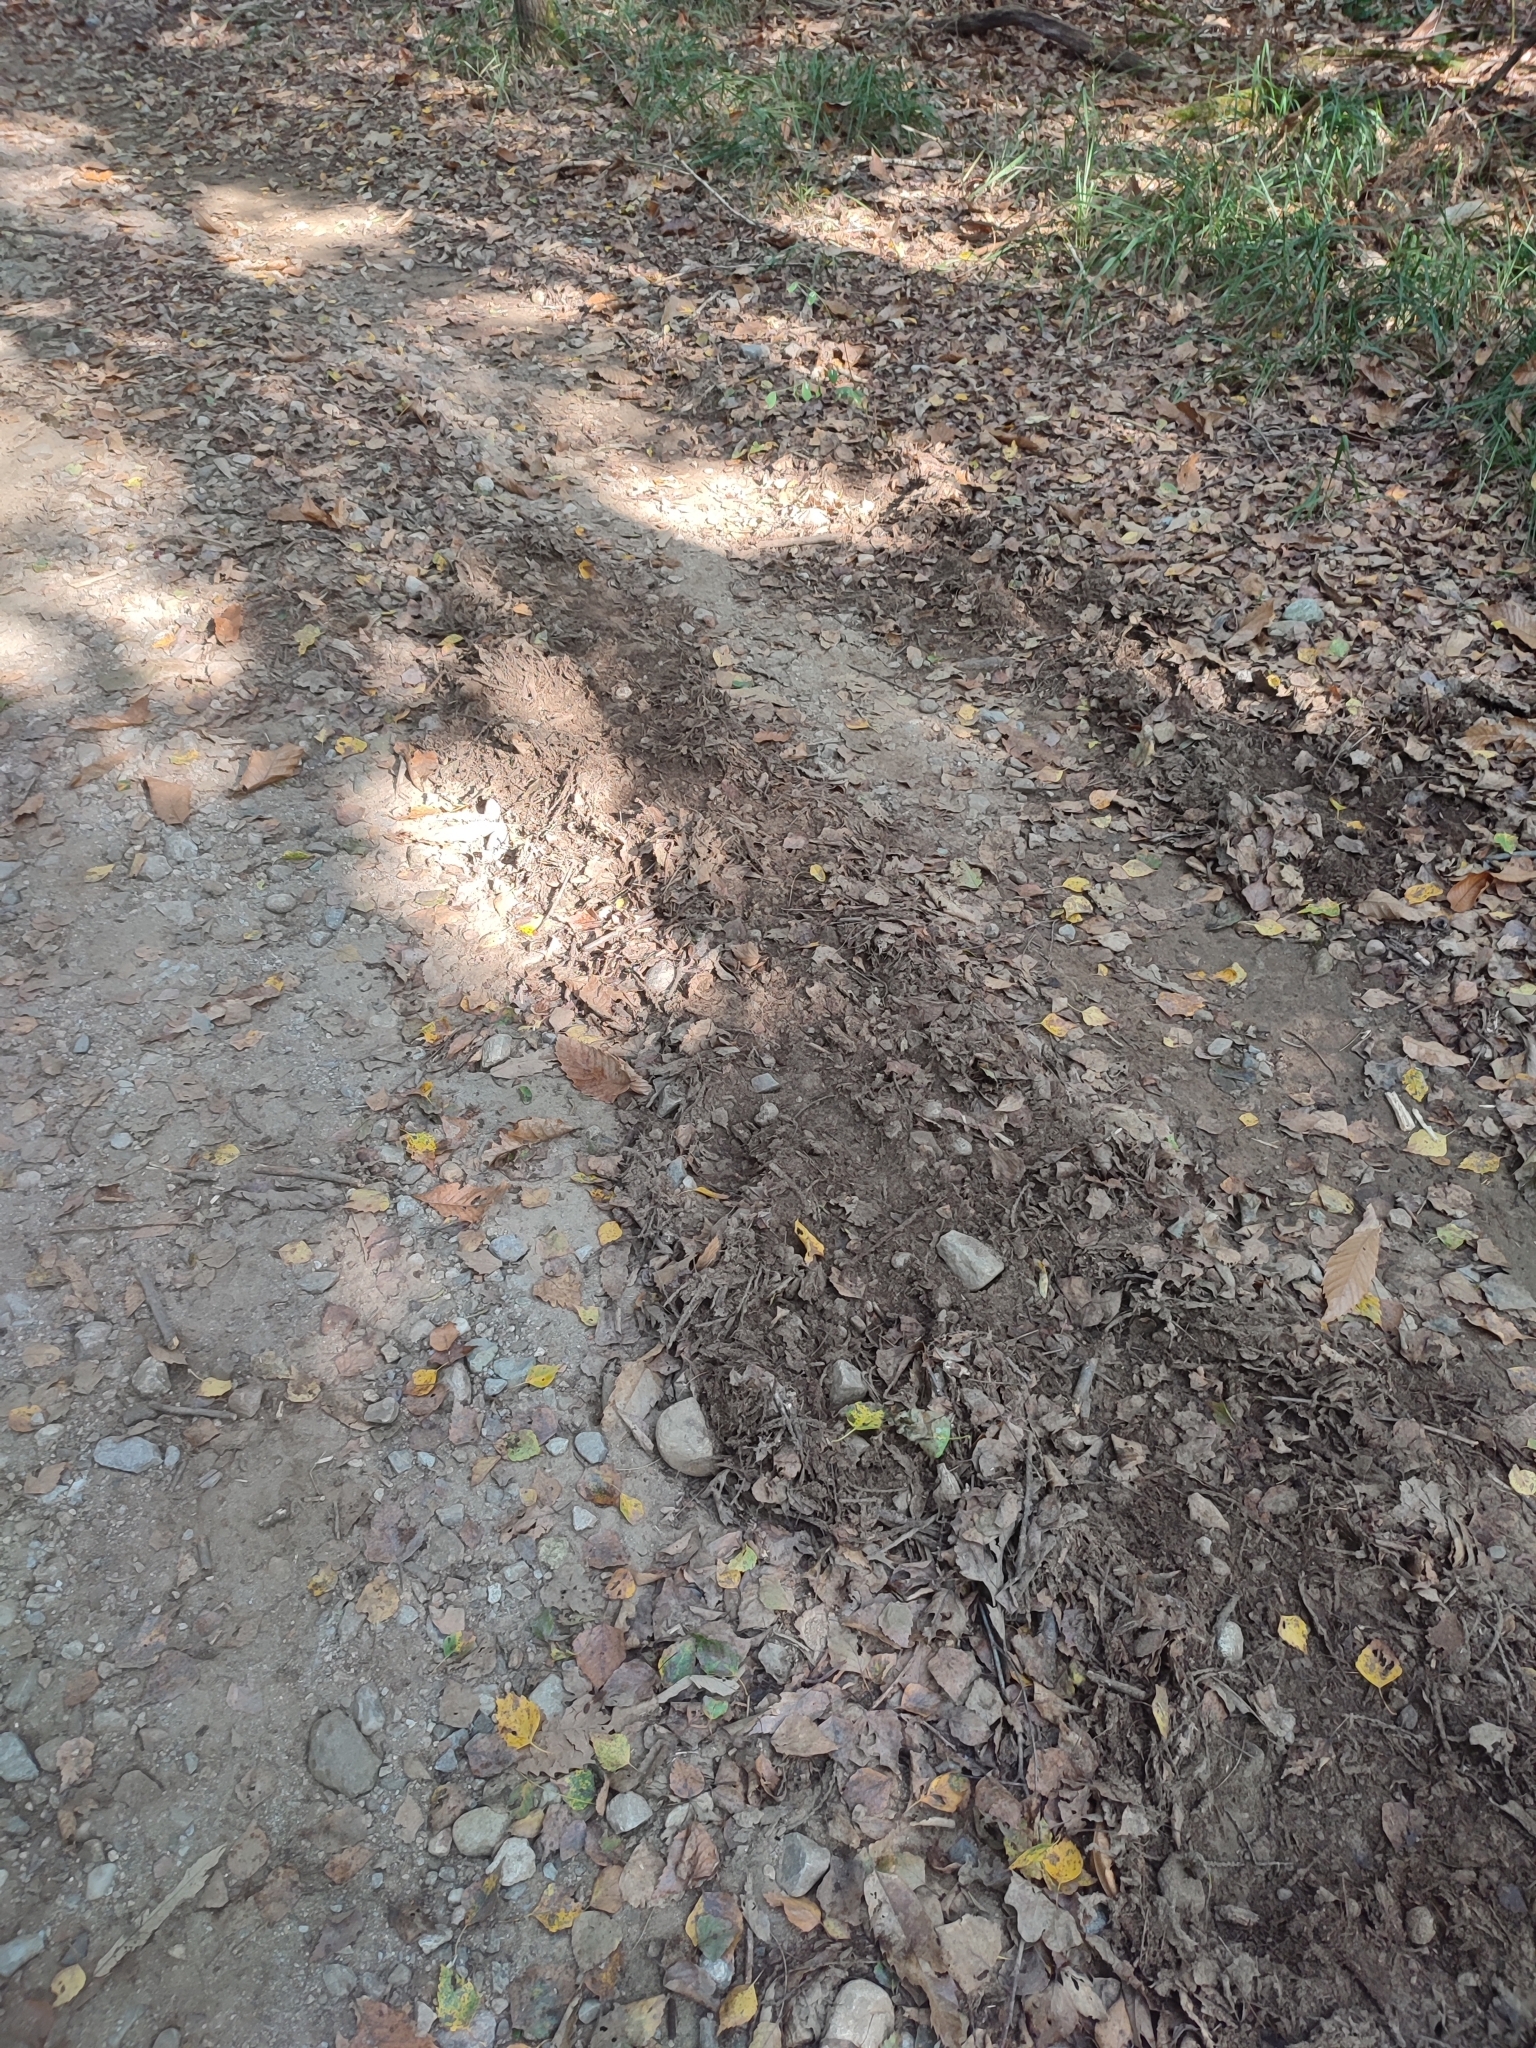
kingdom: Animalia
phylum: Chordata
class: Mammalia
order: Artiodactyla
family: Suidae
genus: Sus
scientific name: Sus scrofa
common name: Wild boar
